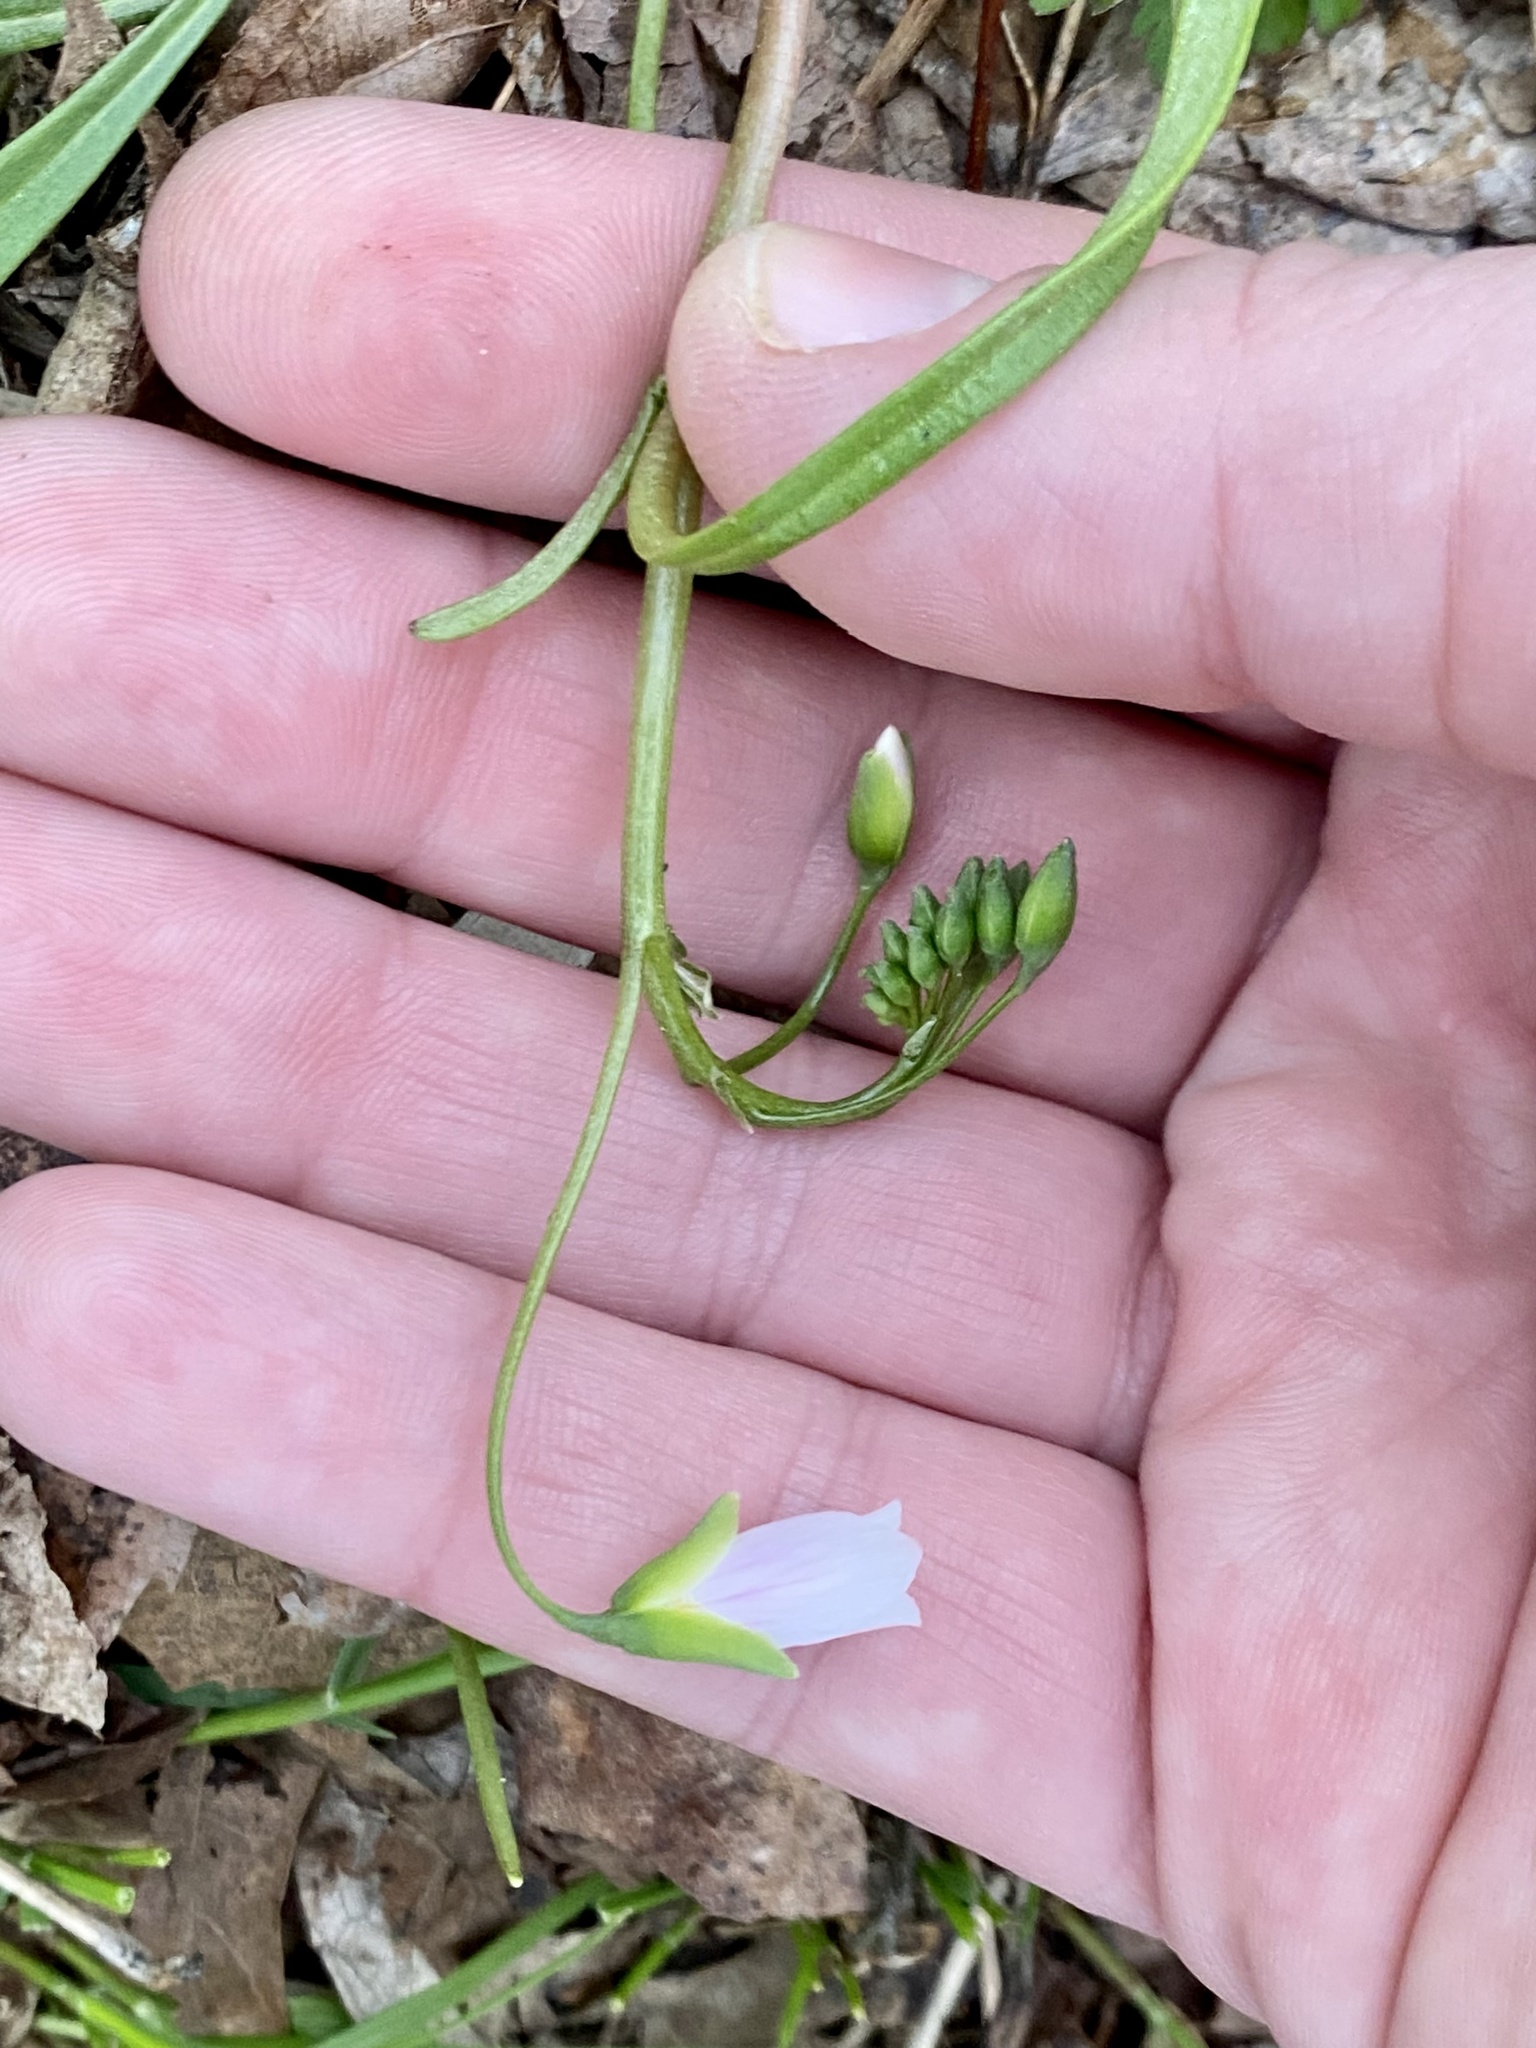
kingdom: Plantae
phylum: Tracheophyta
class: Magnoliopsida
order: Caryophyllales
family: Montiaceae
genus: Claytonia
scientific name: Claytonia virginica
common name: Virginia springbeauty
